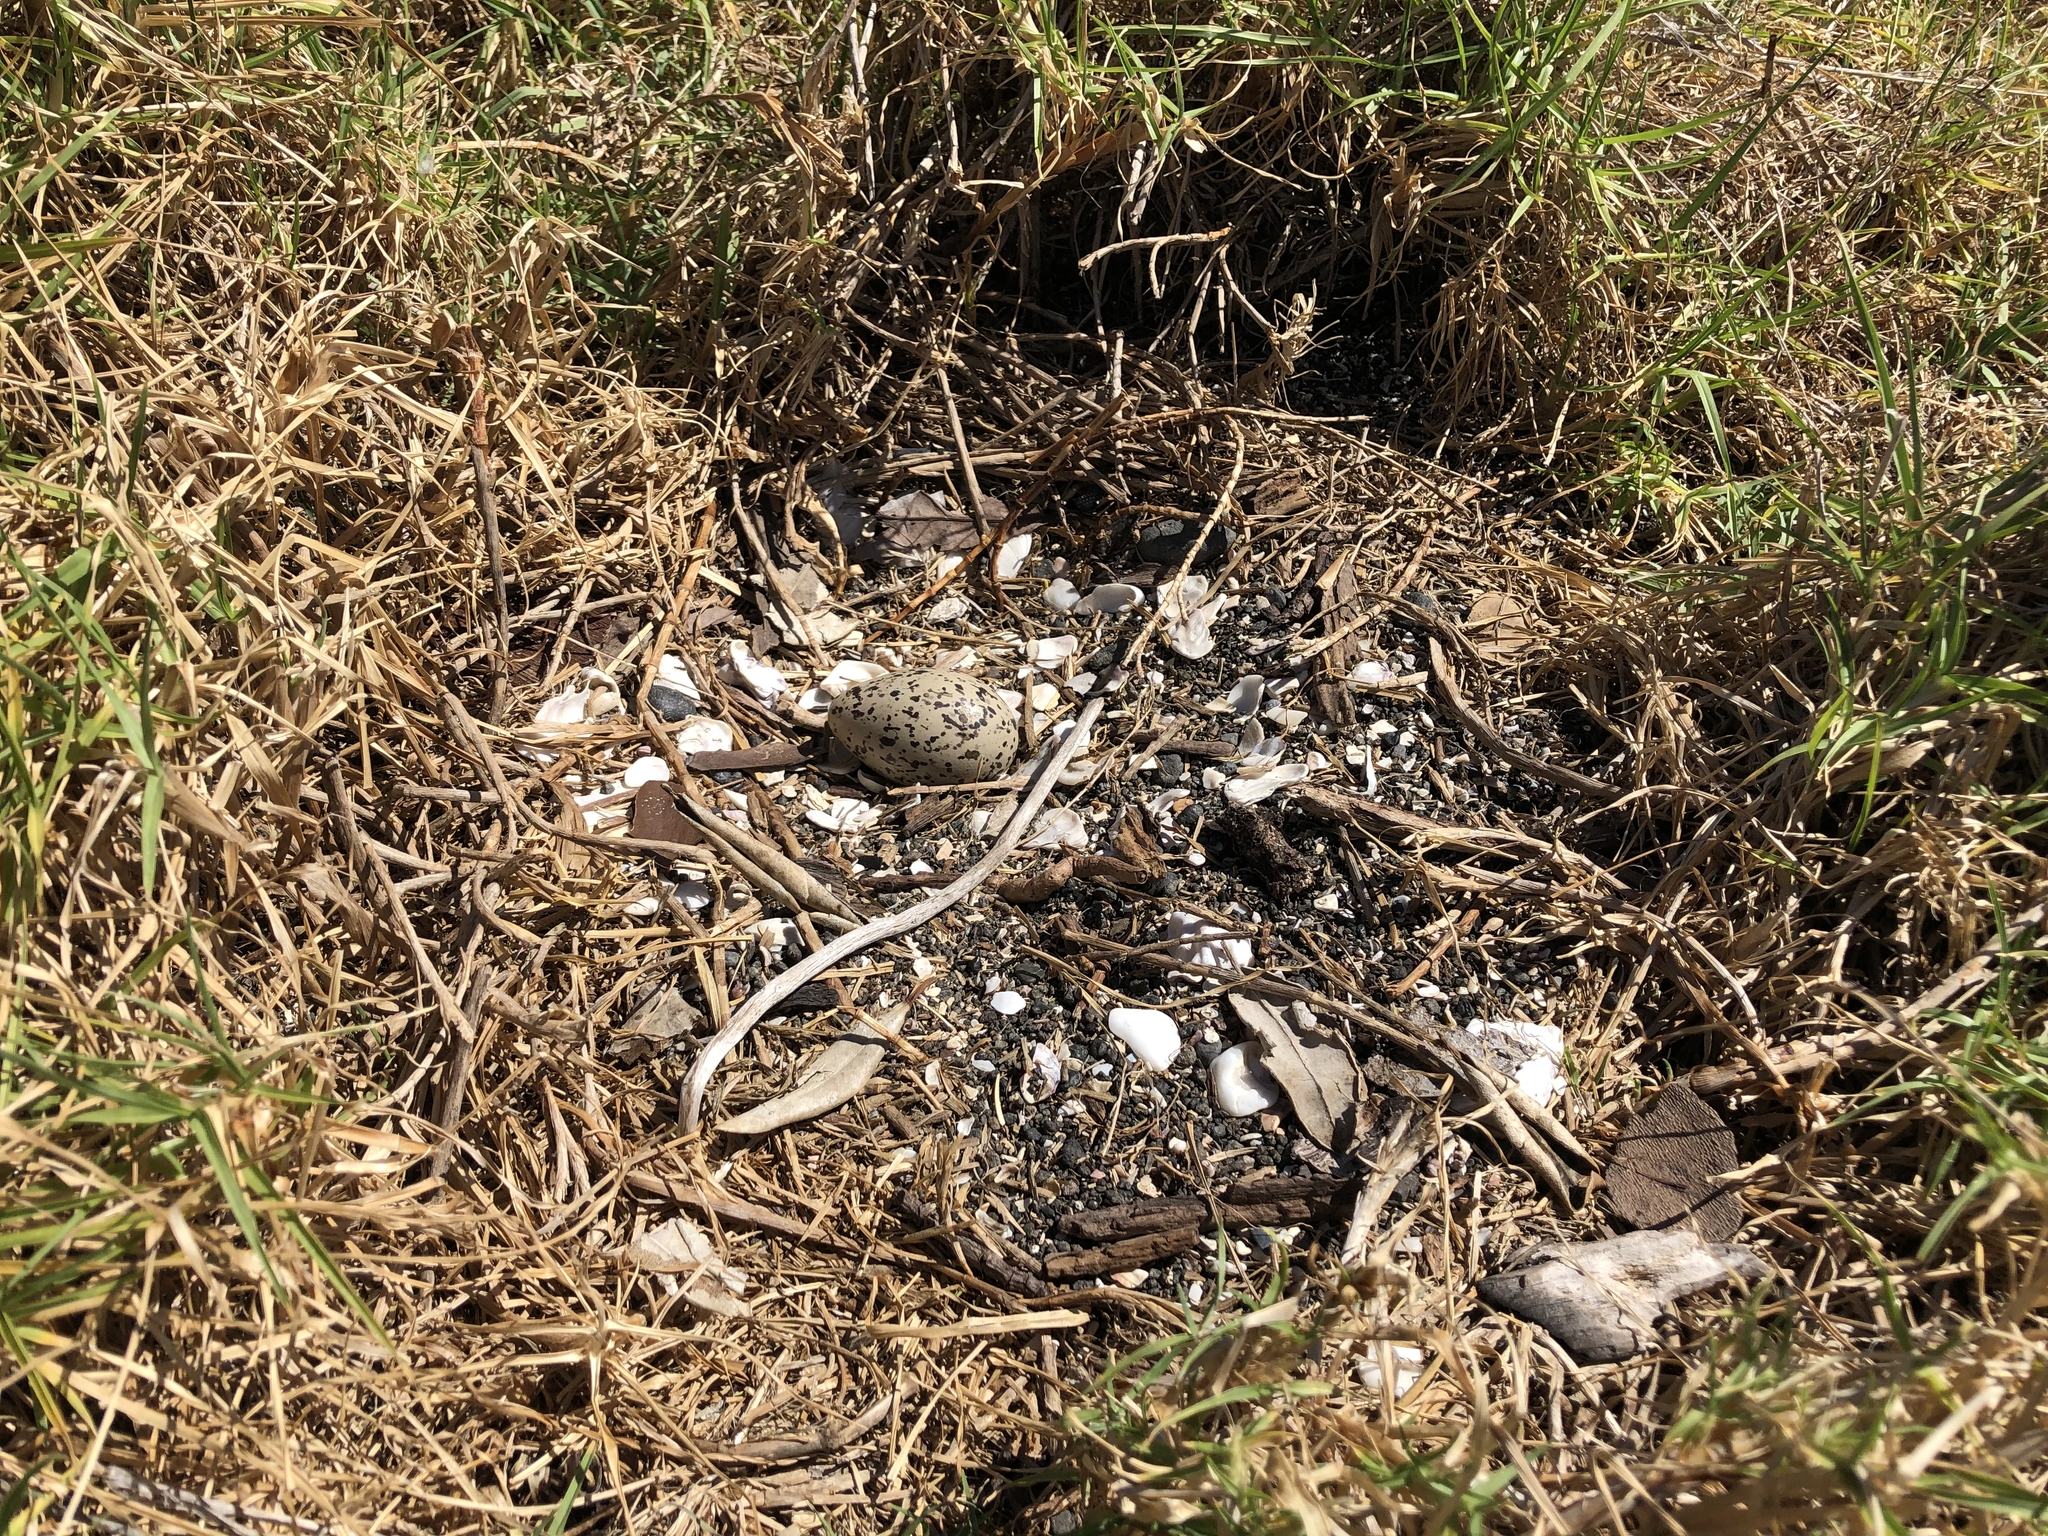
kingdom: Animalia
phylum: Chordata
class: Aves
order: Charadriiformes
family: Haematopodidae
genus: Haematopus
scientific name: Haematopus unicolor
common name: Variable oystercatcher
